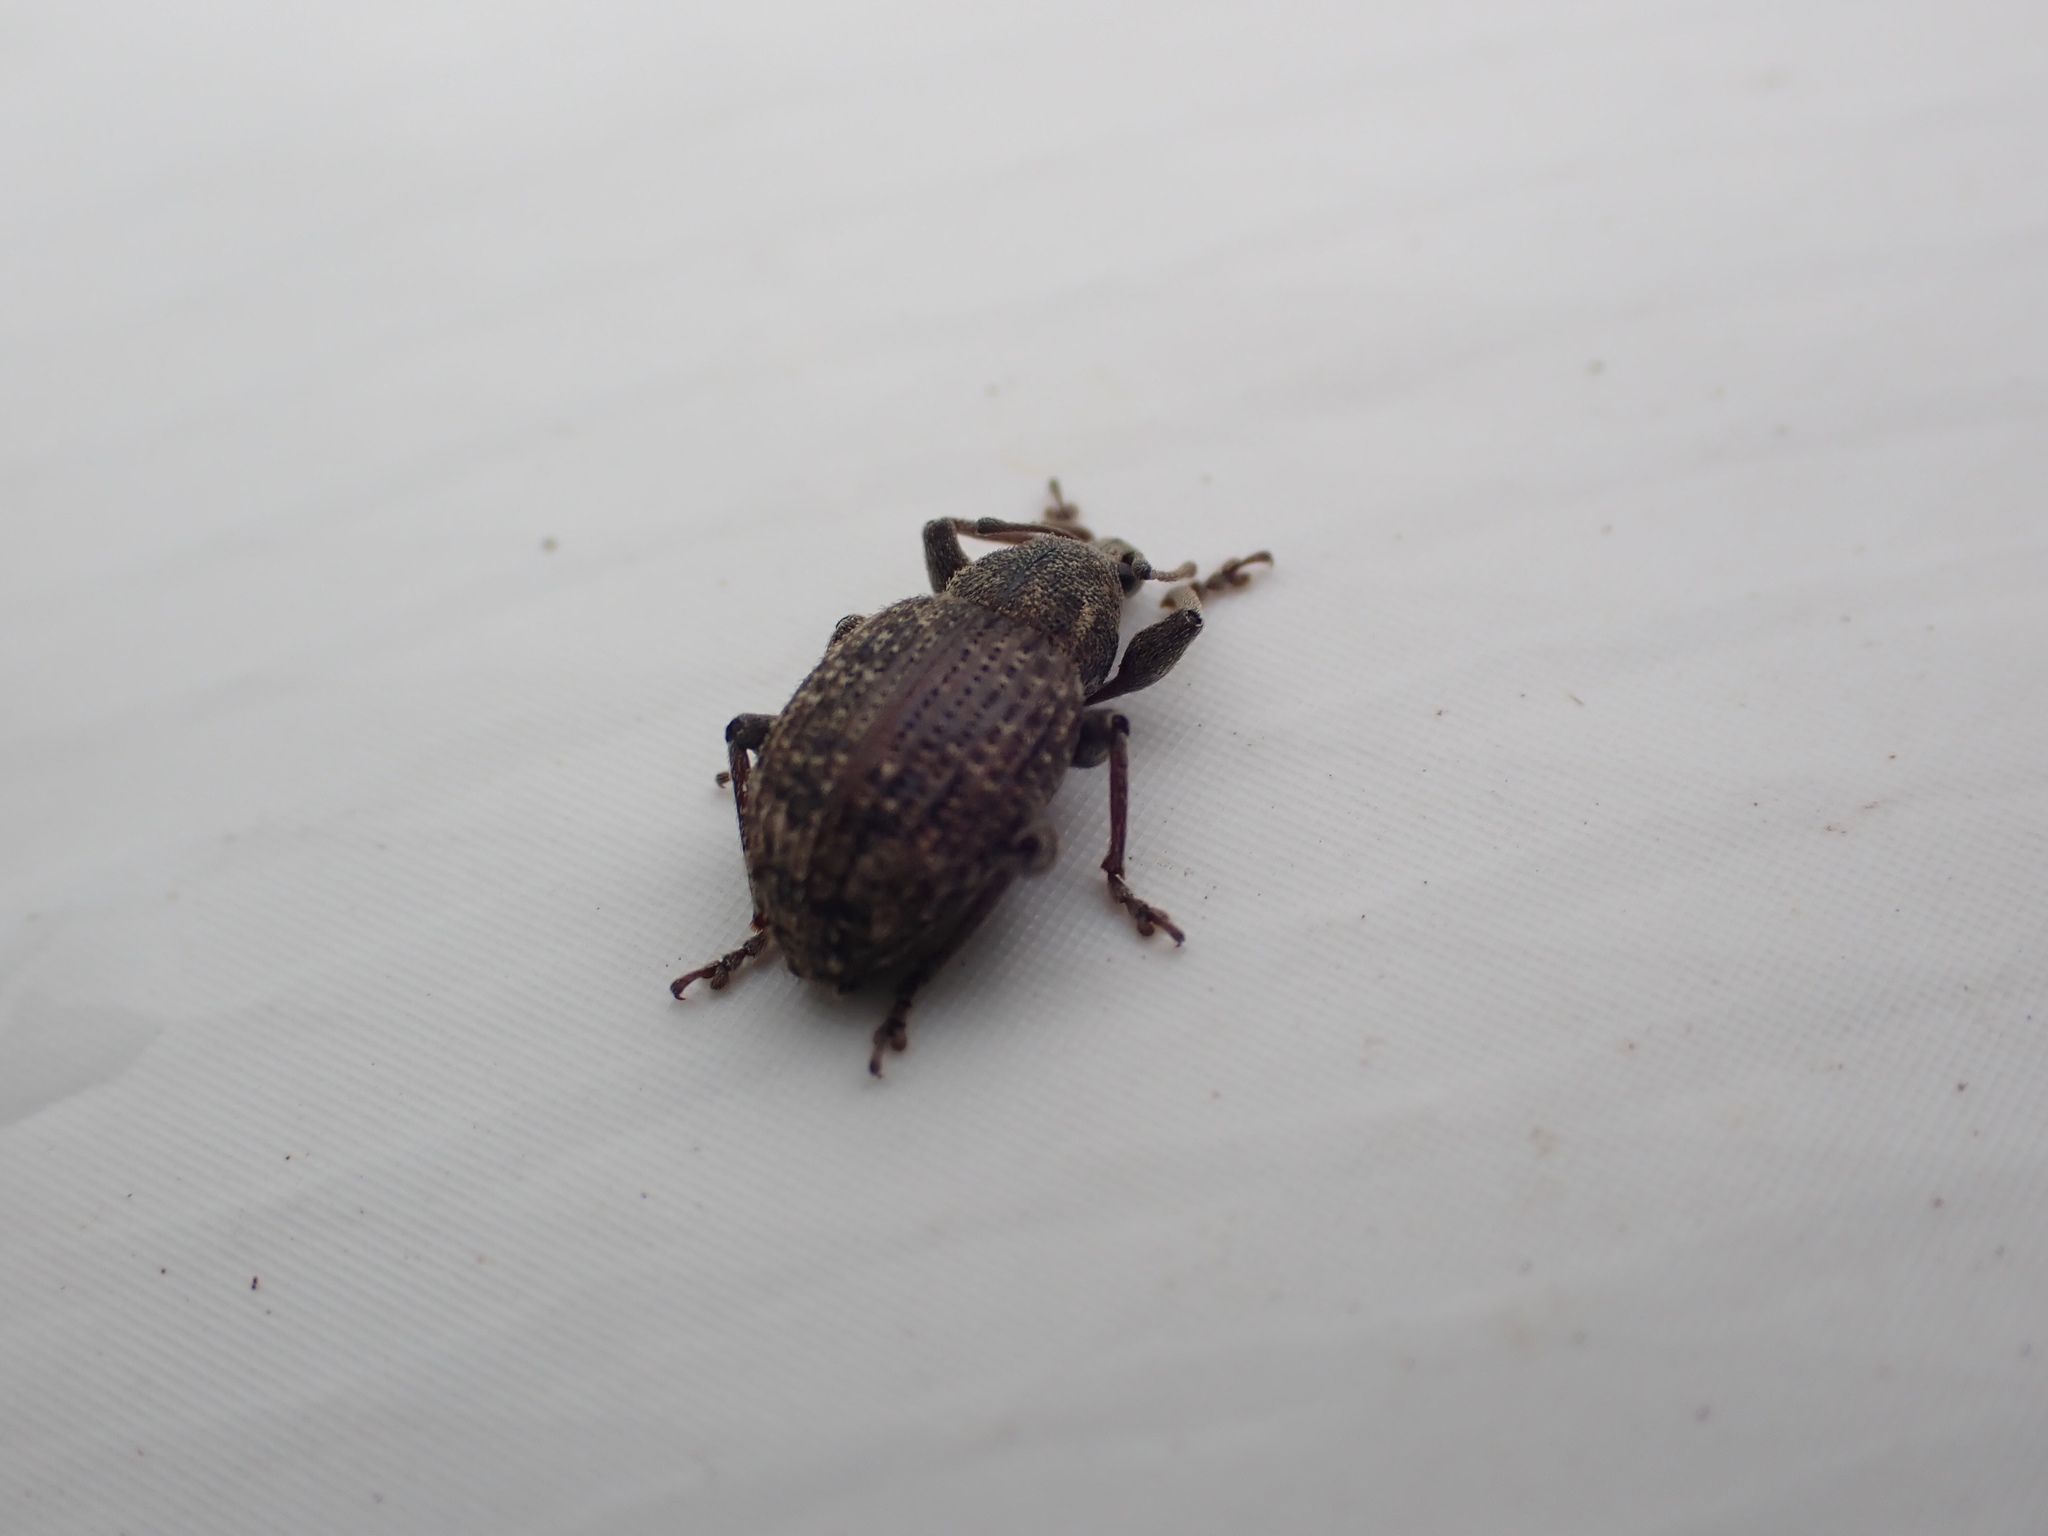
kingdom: Animalia
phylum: Arthropoda
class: Insecta
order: Coleoptera
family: Curculionidae
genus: Phlyctinus
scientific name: Phlyctinus callosus
